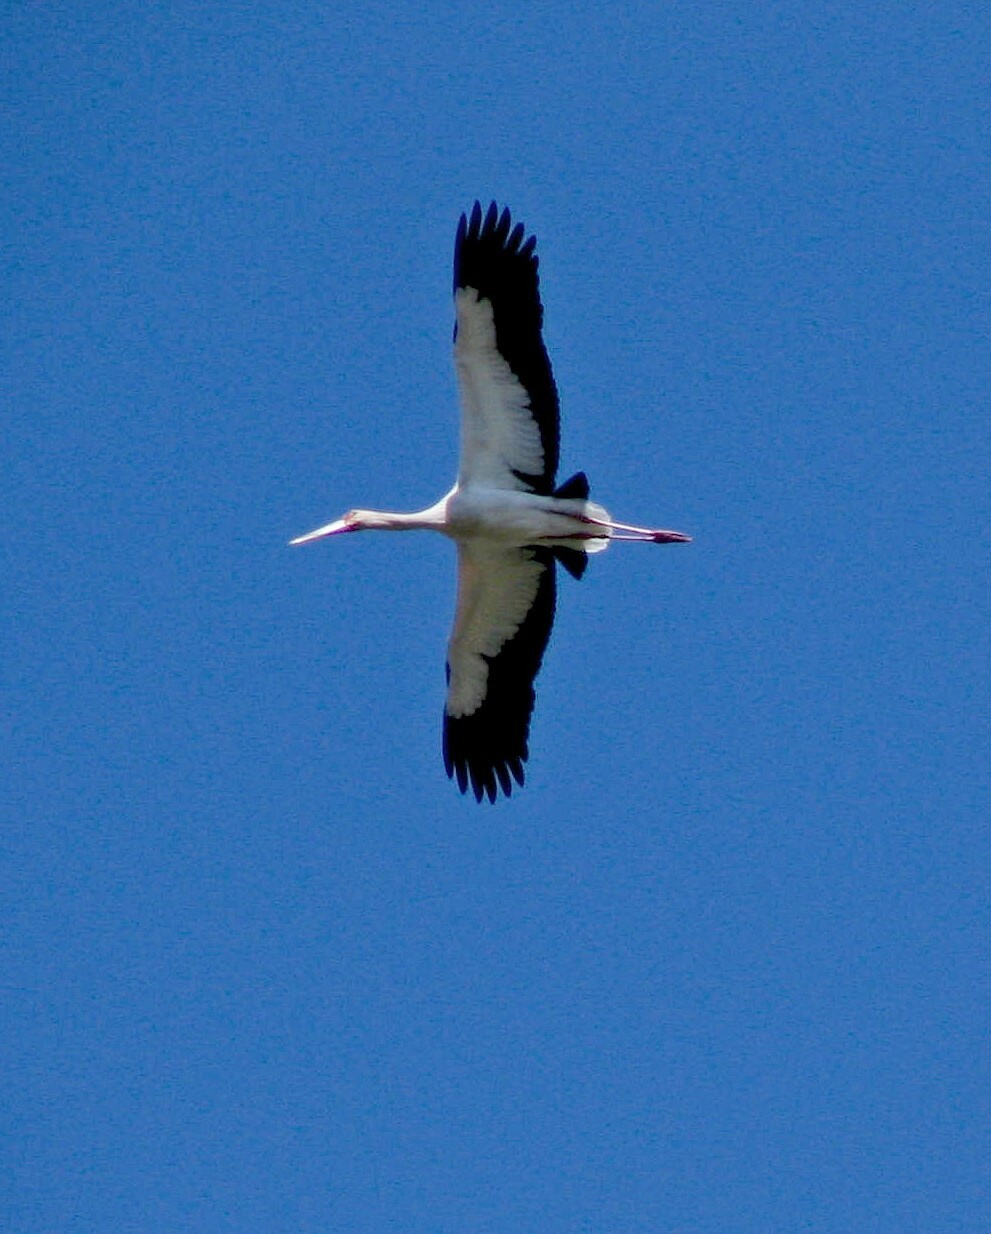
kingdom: Animalia
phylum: Chordata
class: Aves
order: Ciconiiformes
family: Ciconiidae
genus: Ciconia
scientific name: Ciconia maguari
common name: Maguari stork
